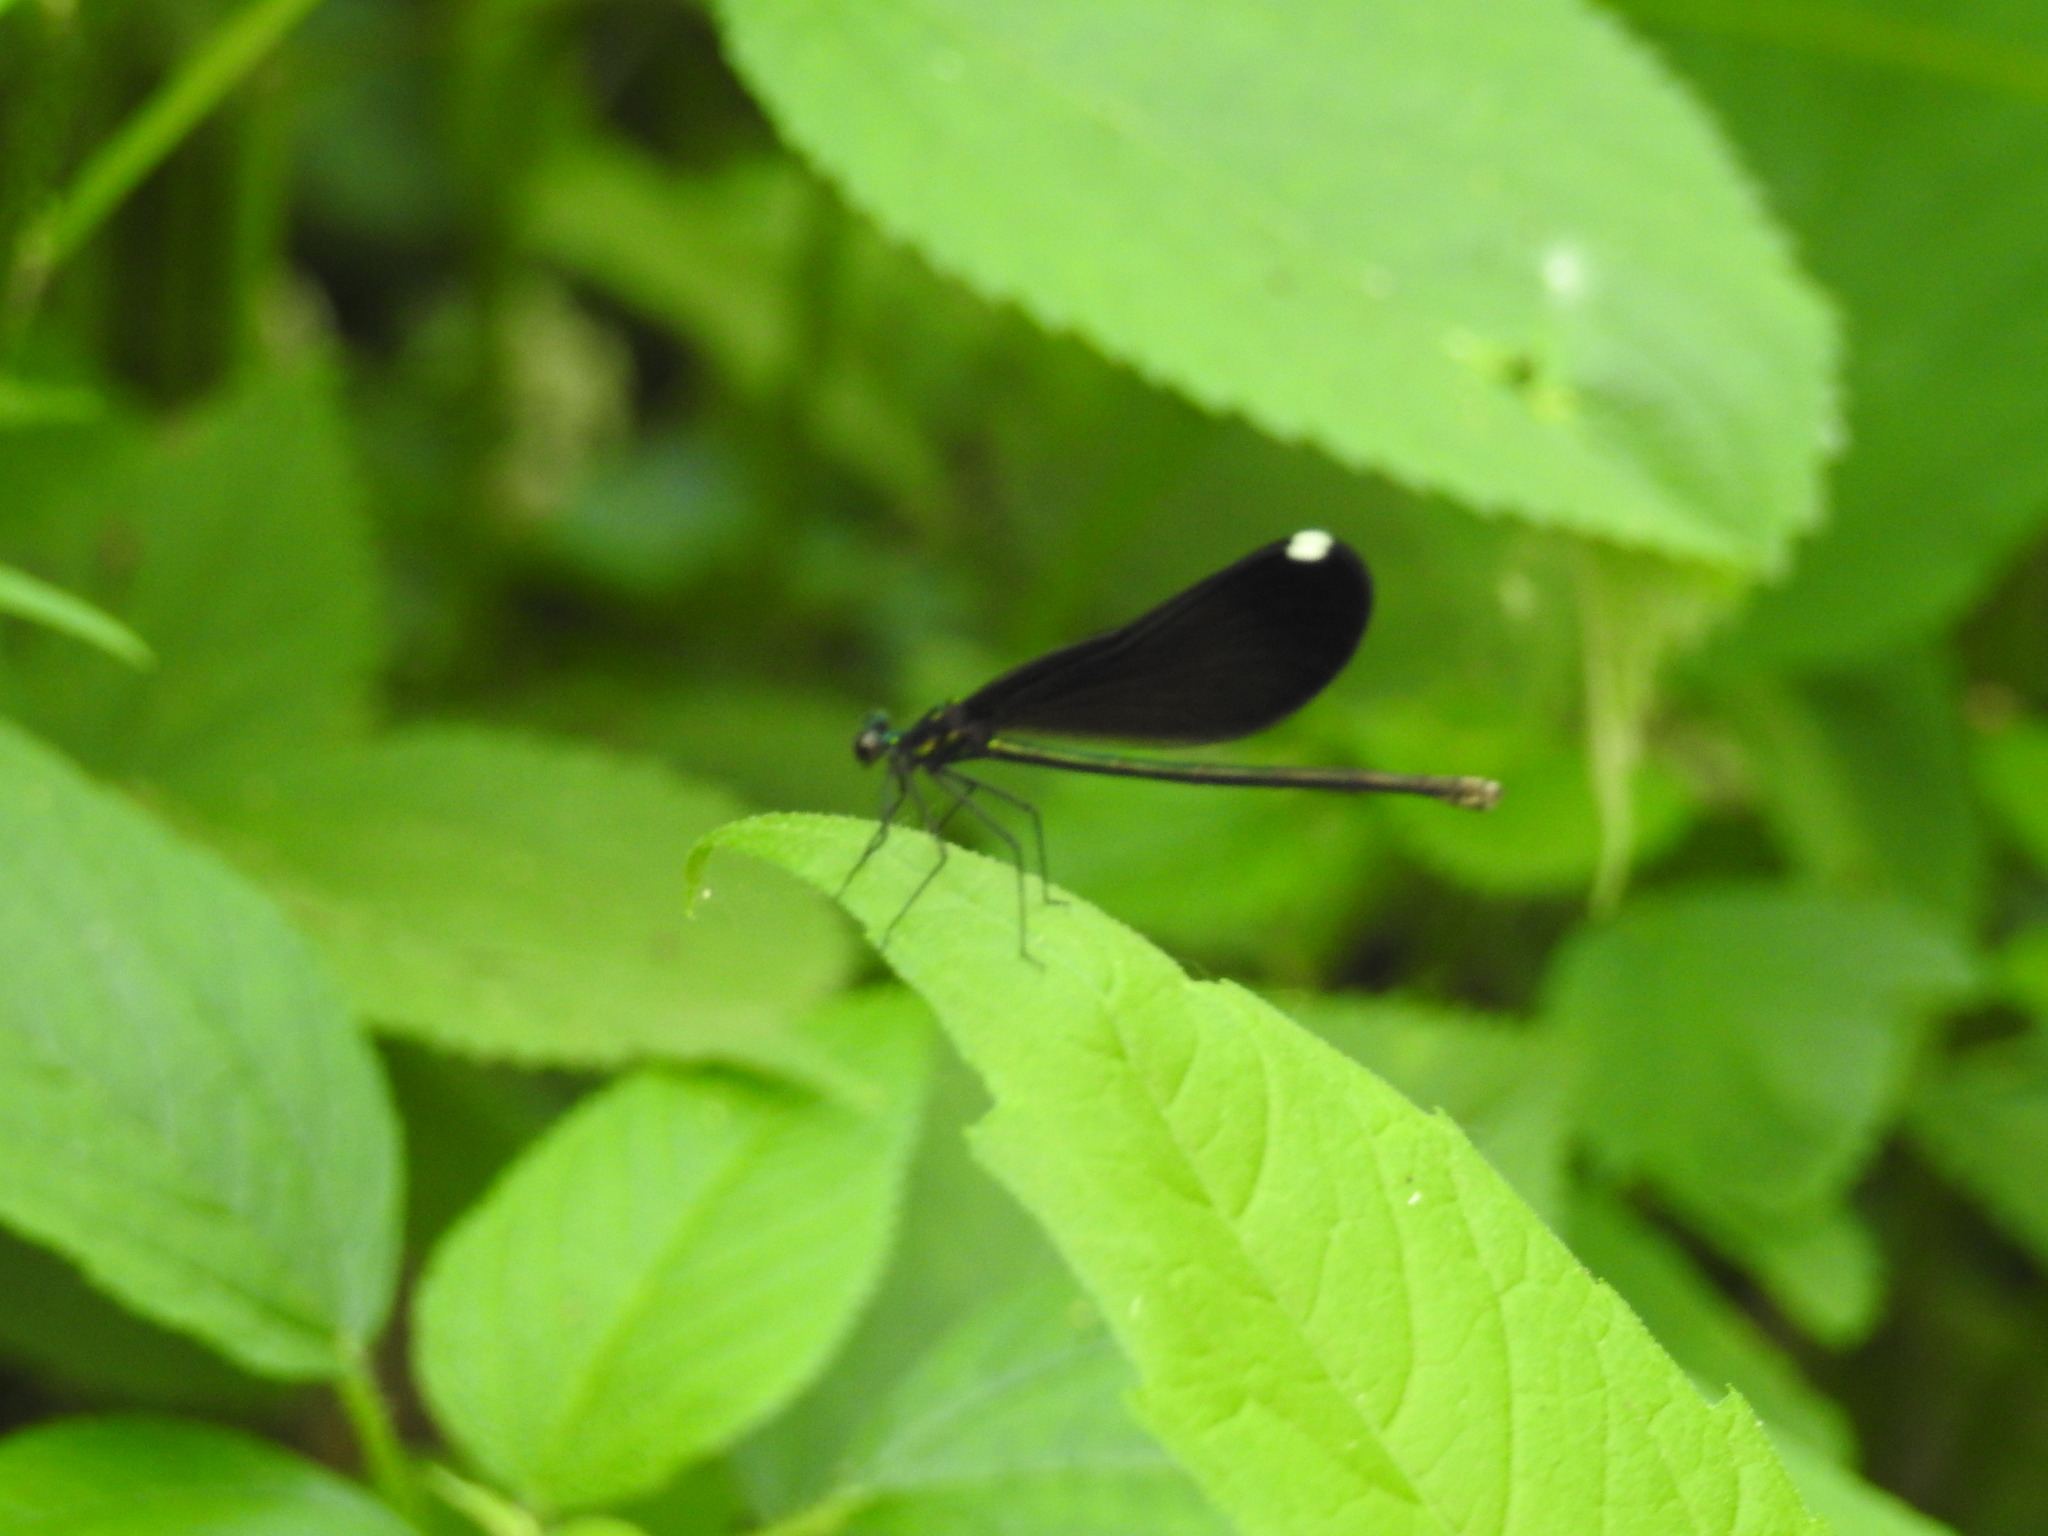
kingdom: Animalia
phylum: Arthropoda
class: Insecta
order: Odonata
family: Calopterygidae
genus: Calopteryx
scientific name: Calopteryx maculata
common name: Ebony jewelwing
